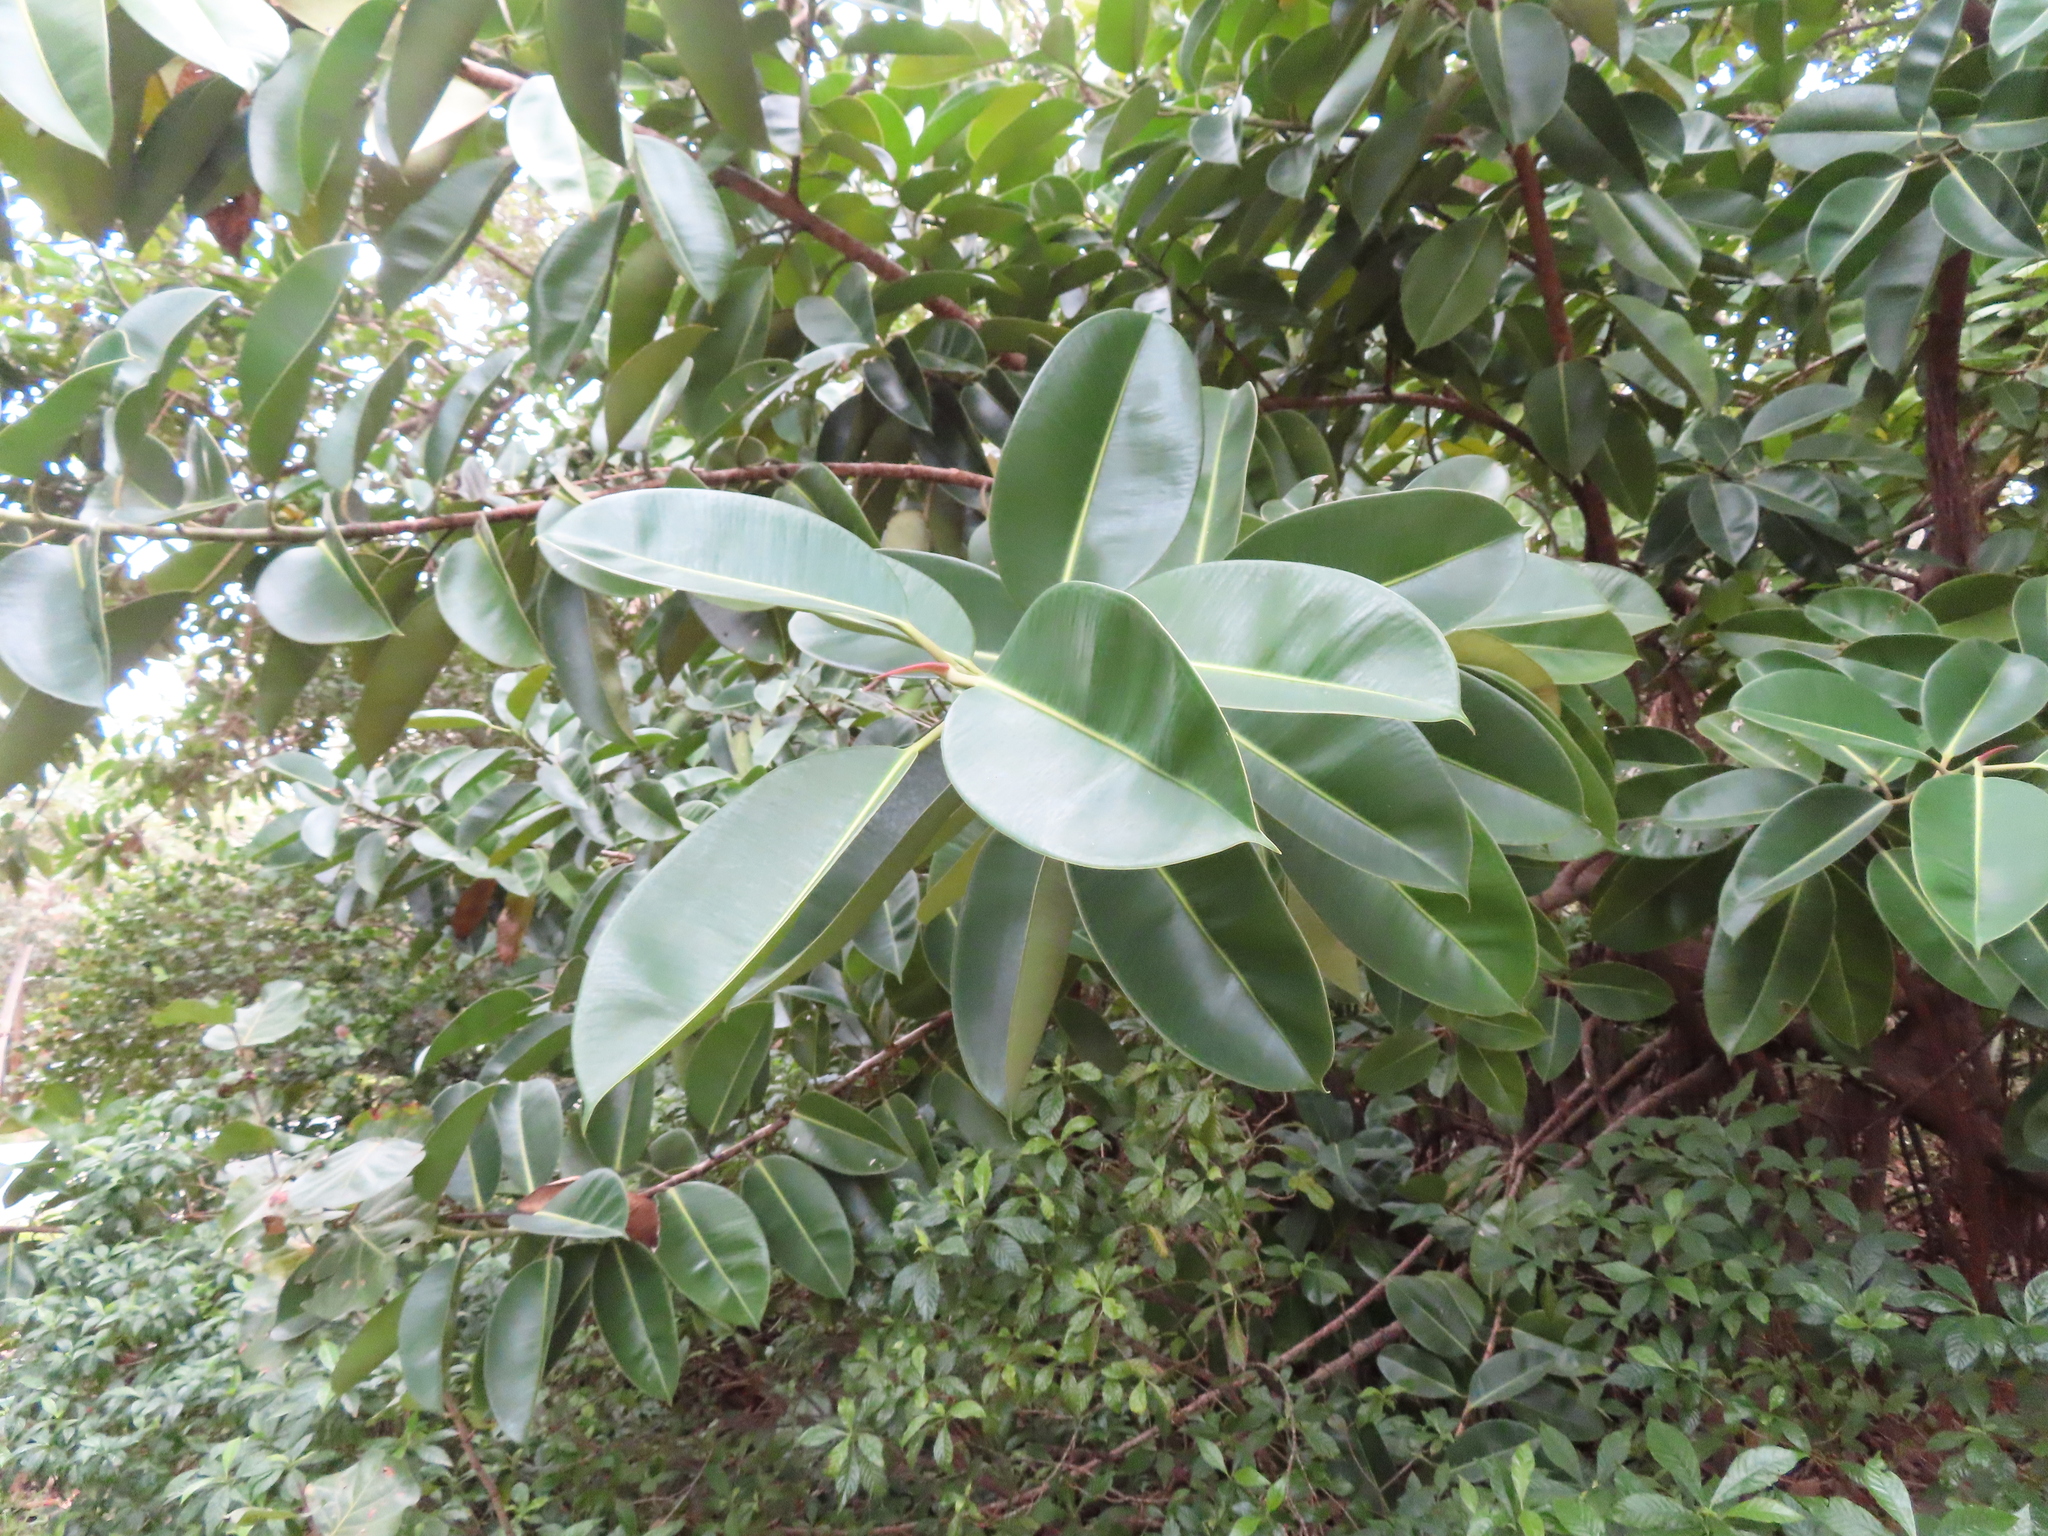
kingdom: Plantae
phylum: Tracheophyta
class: Magnoliopsida
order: Rosales
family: Moraceae
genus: Ficus
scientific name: Ficus elastica
